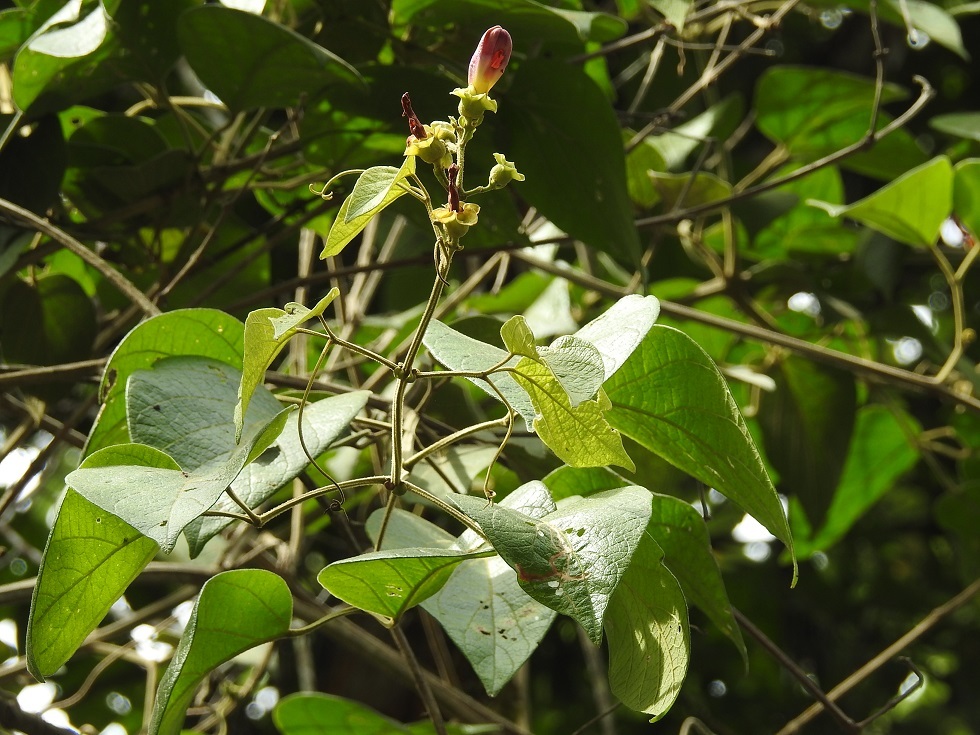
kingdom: Plantae
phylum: Tracheophyta
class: Magnoliopsida
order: Lamiales
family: Bignoniaceae
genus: Amphilophium
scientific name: Amphilophium paniculatum
